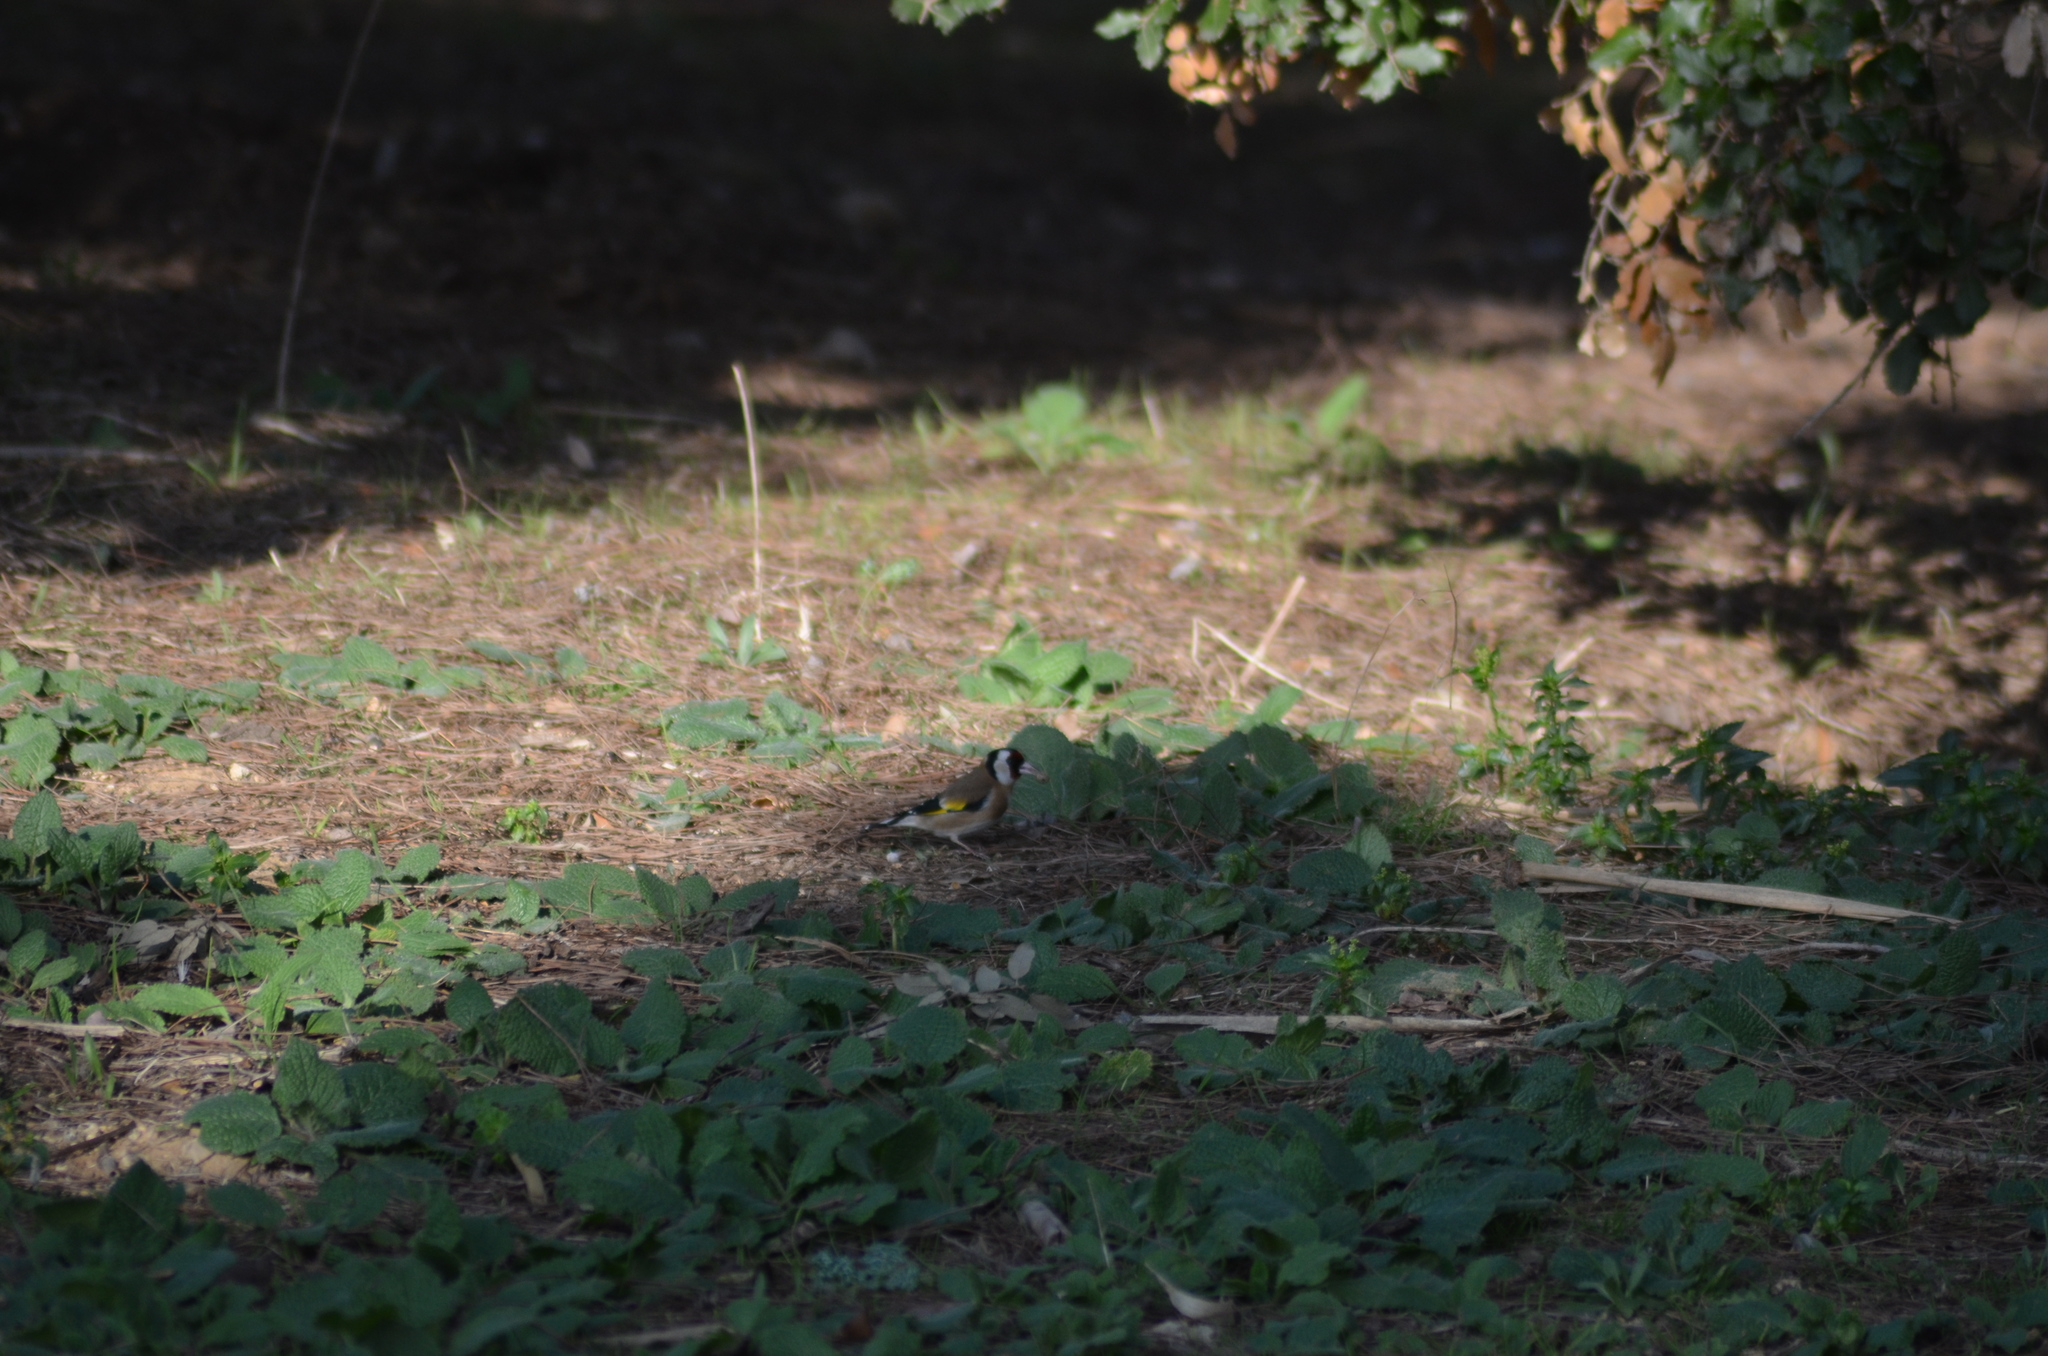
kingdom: Animalia
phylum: Chordata
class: Aves
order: Passeriformes
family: Fringillidae
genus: Carduelis
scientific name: Carduelis carduelis
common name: European goldfinch
